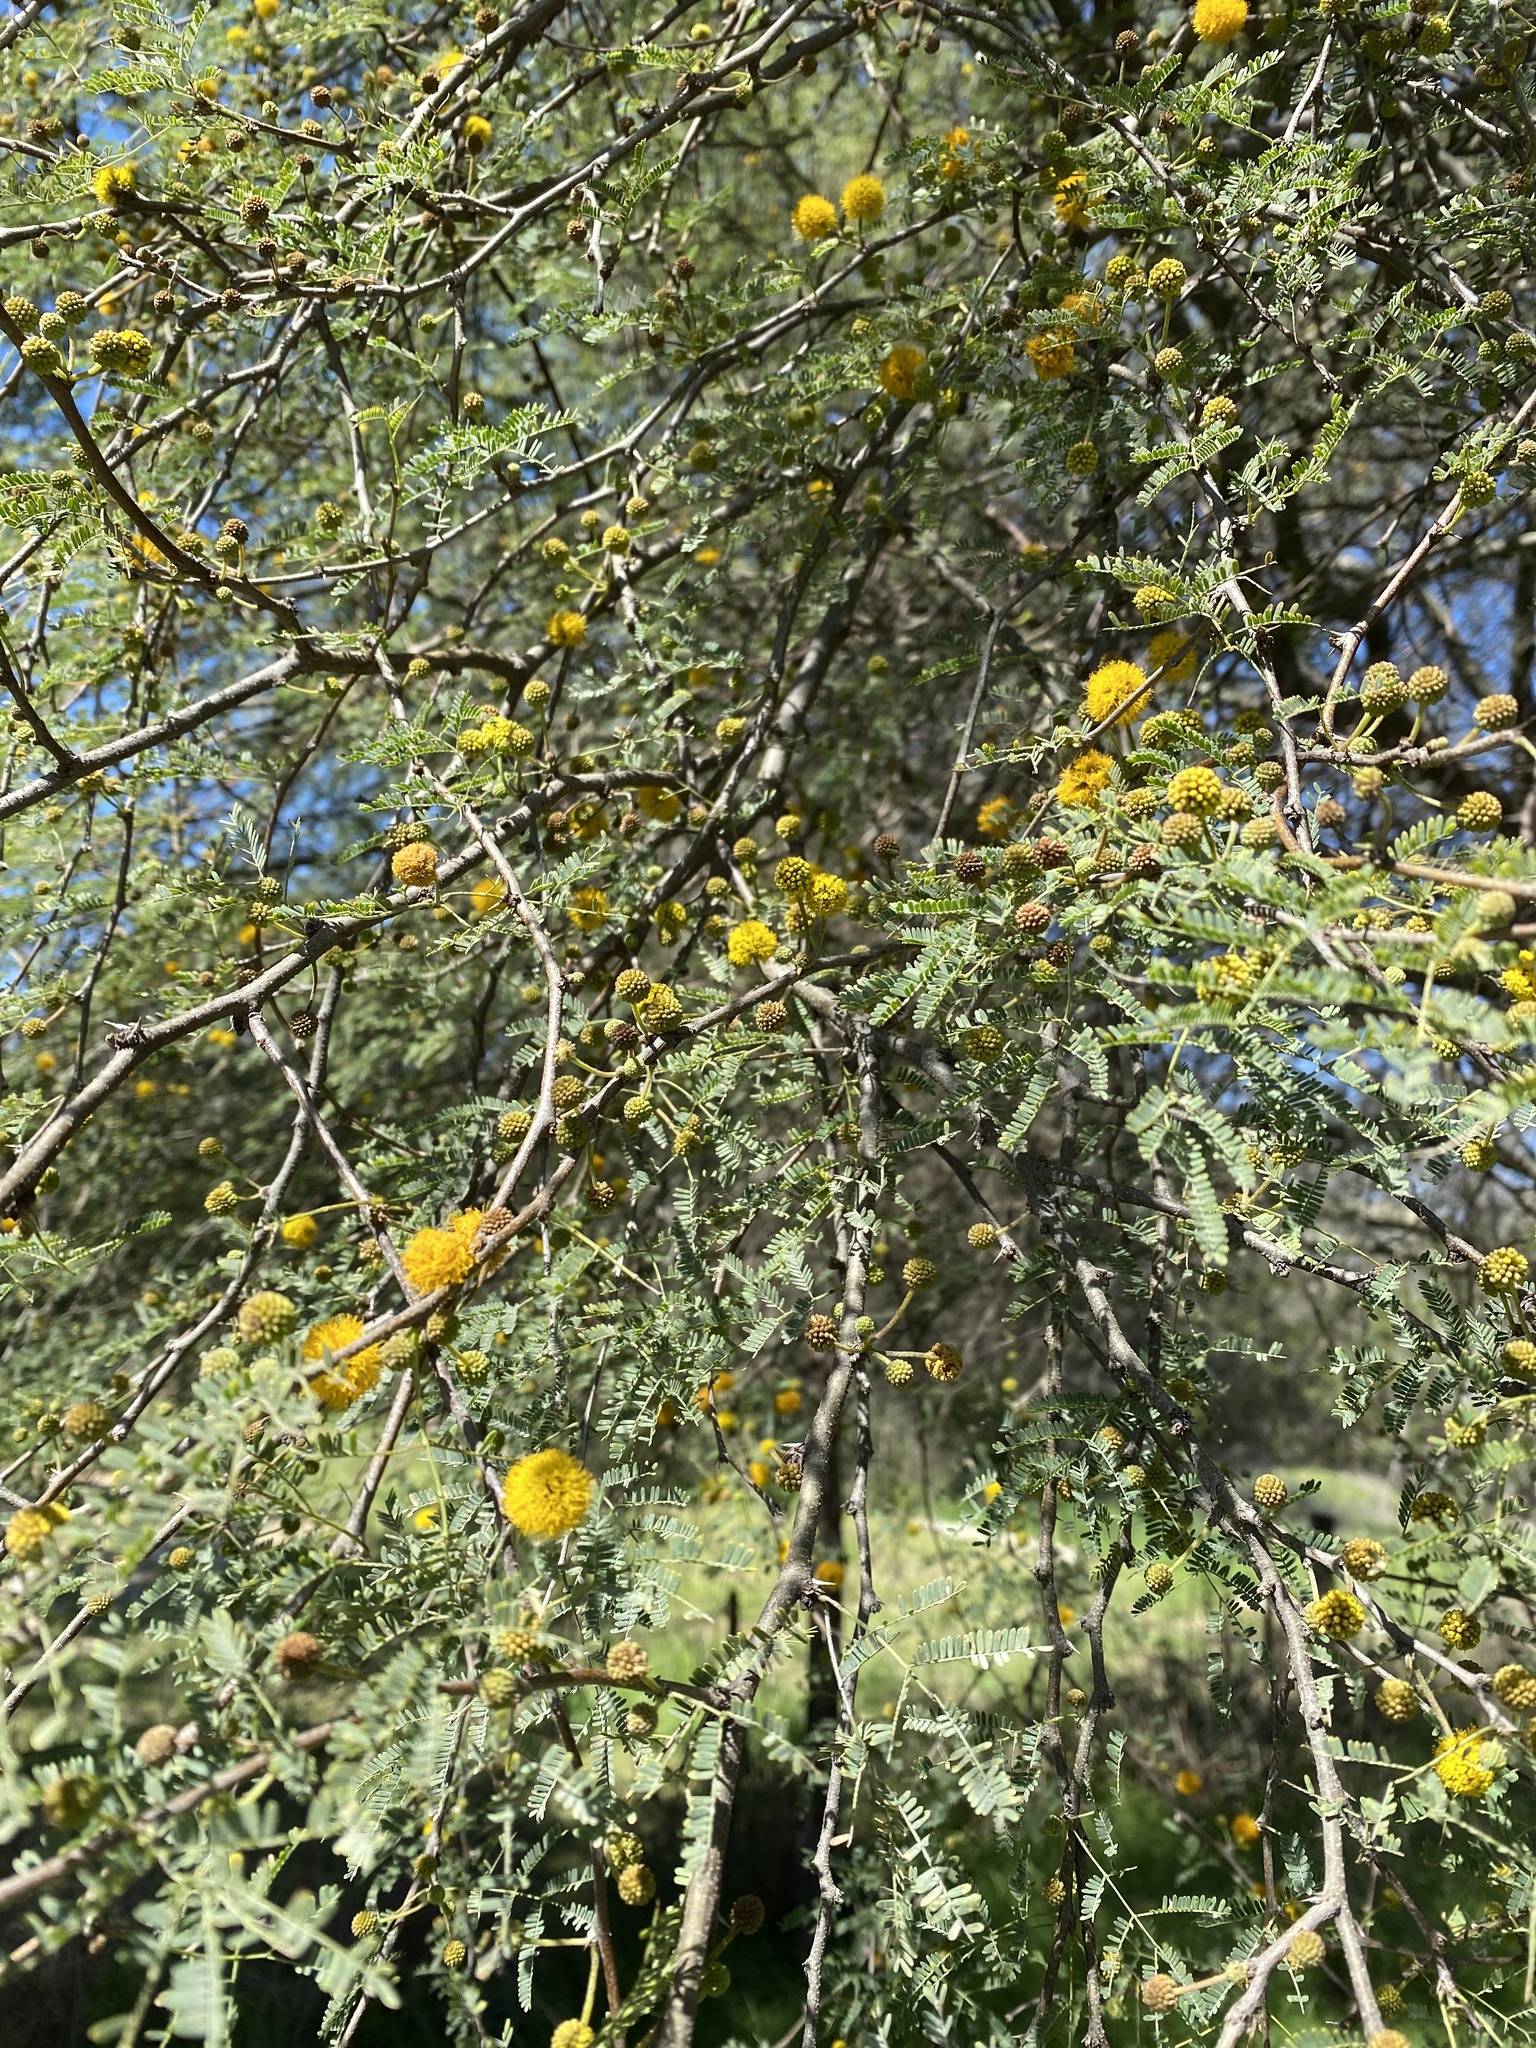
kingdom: Plantae
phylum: Tracheophyta
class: Magnoliopsida
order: Fabales
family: Fabaceae
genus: Vachellia
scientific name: Vachellia farnesiana
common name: Sweet acacia
